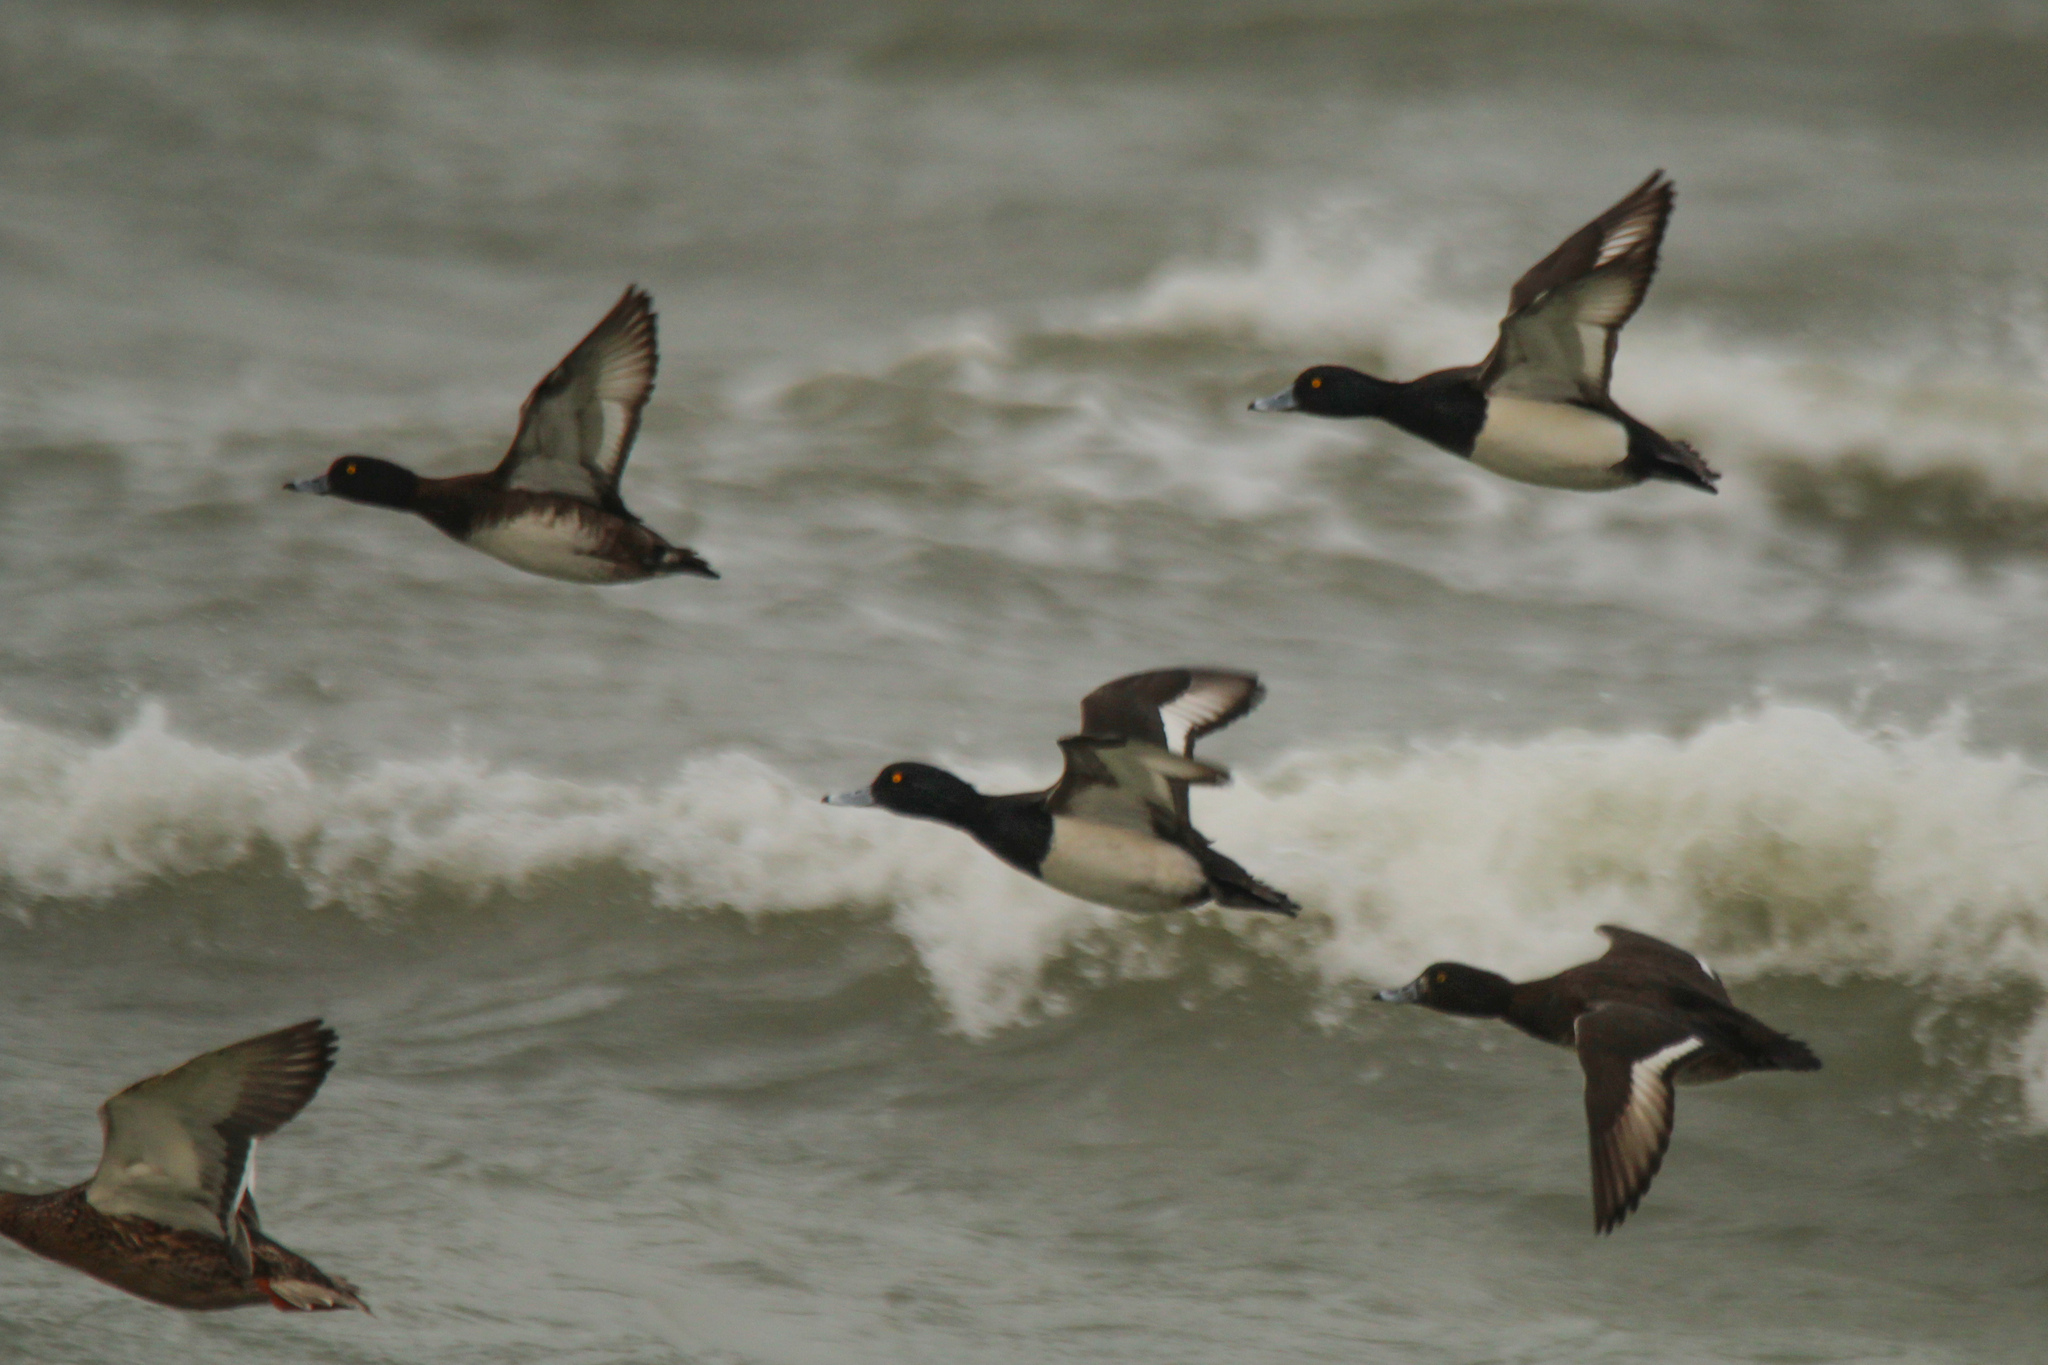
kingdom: Animalia
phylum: Chordata
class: Aves
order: Anseriformes
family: Anatidae
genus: Aythya
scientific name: Aythya fuligula
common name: Tufted duck
